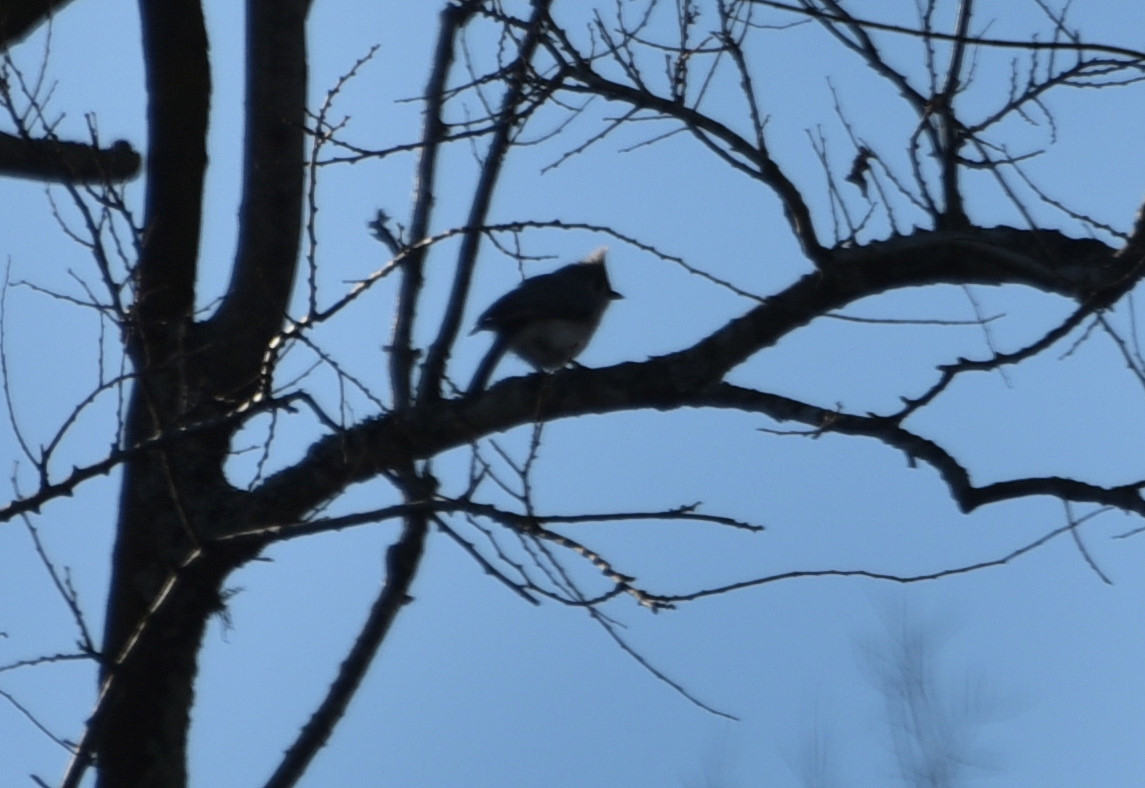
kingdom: Animalia
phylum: Chordata
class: Aves
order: Passeriformes
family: Paridae
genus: Baeolophus
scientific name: Baeolophus bicolor
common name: Tufted titmouse
